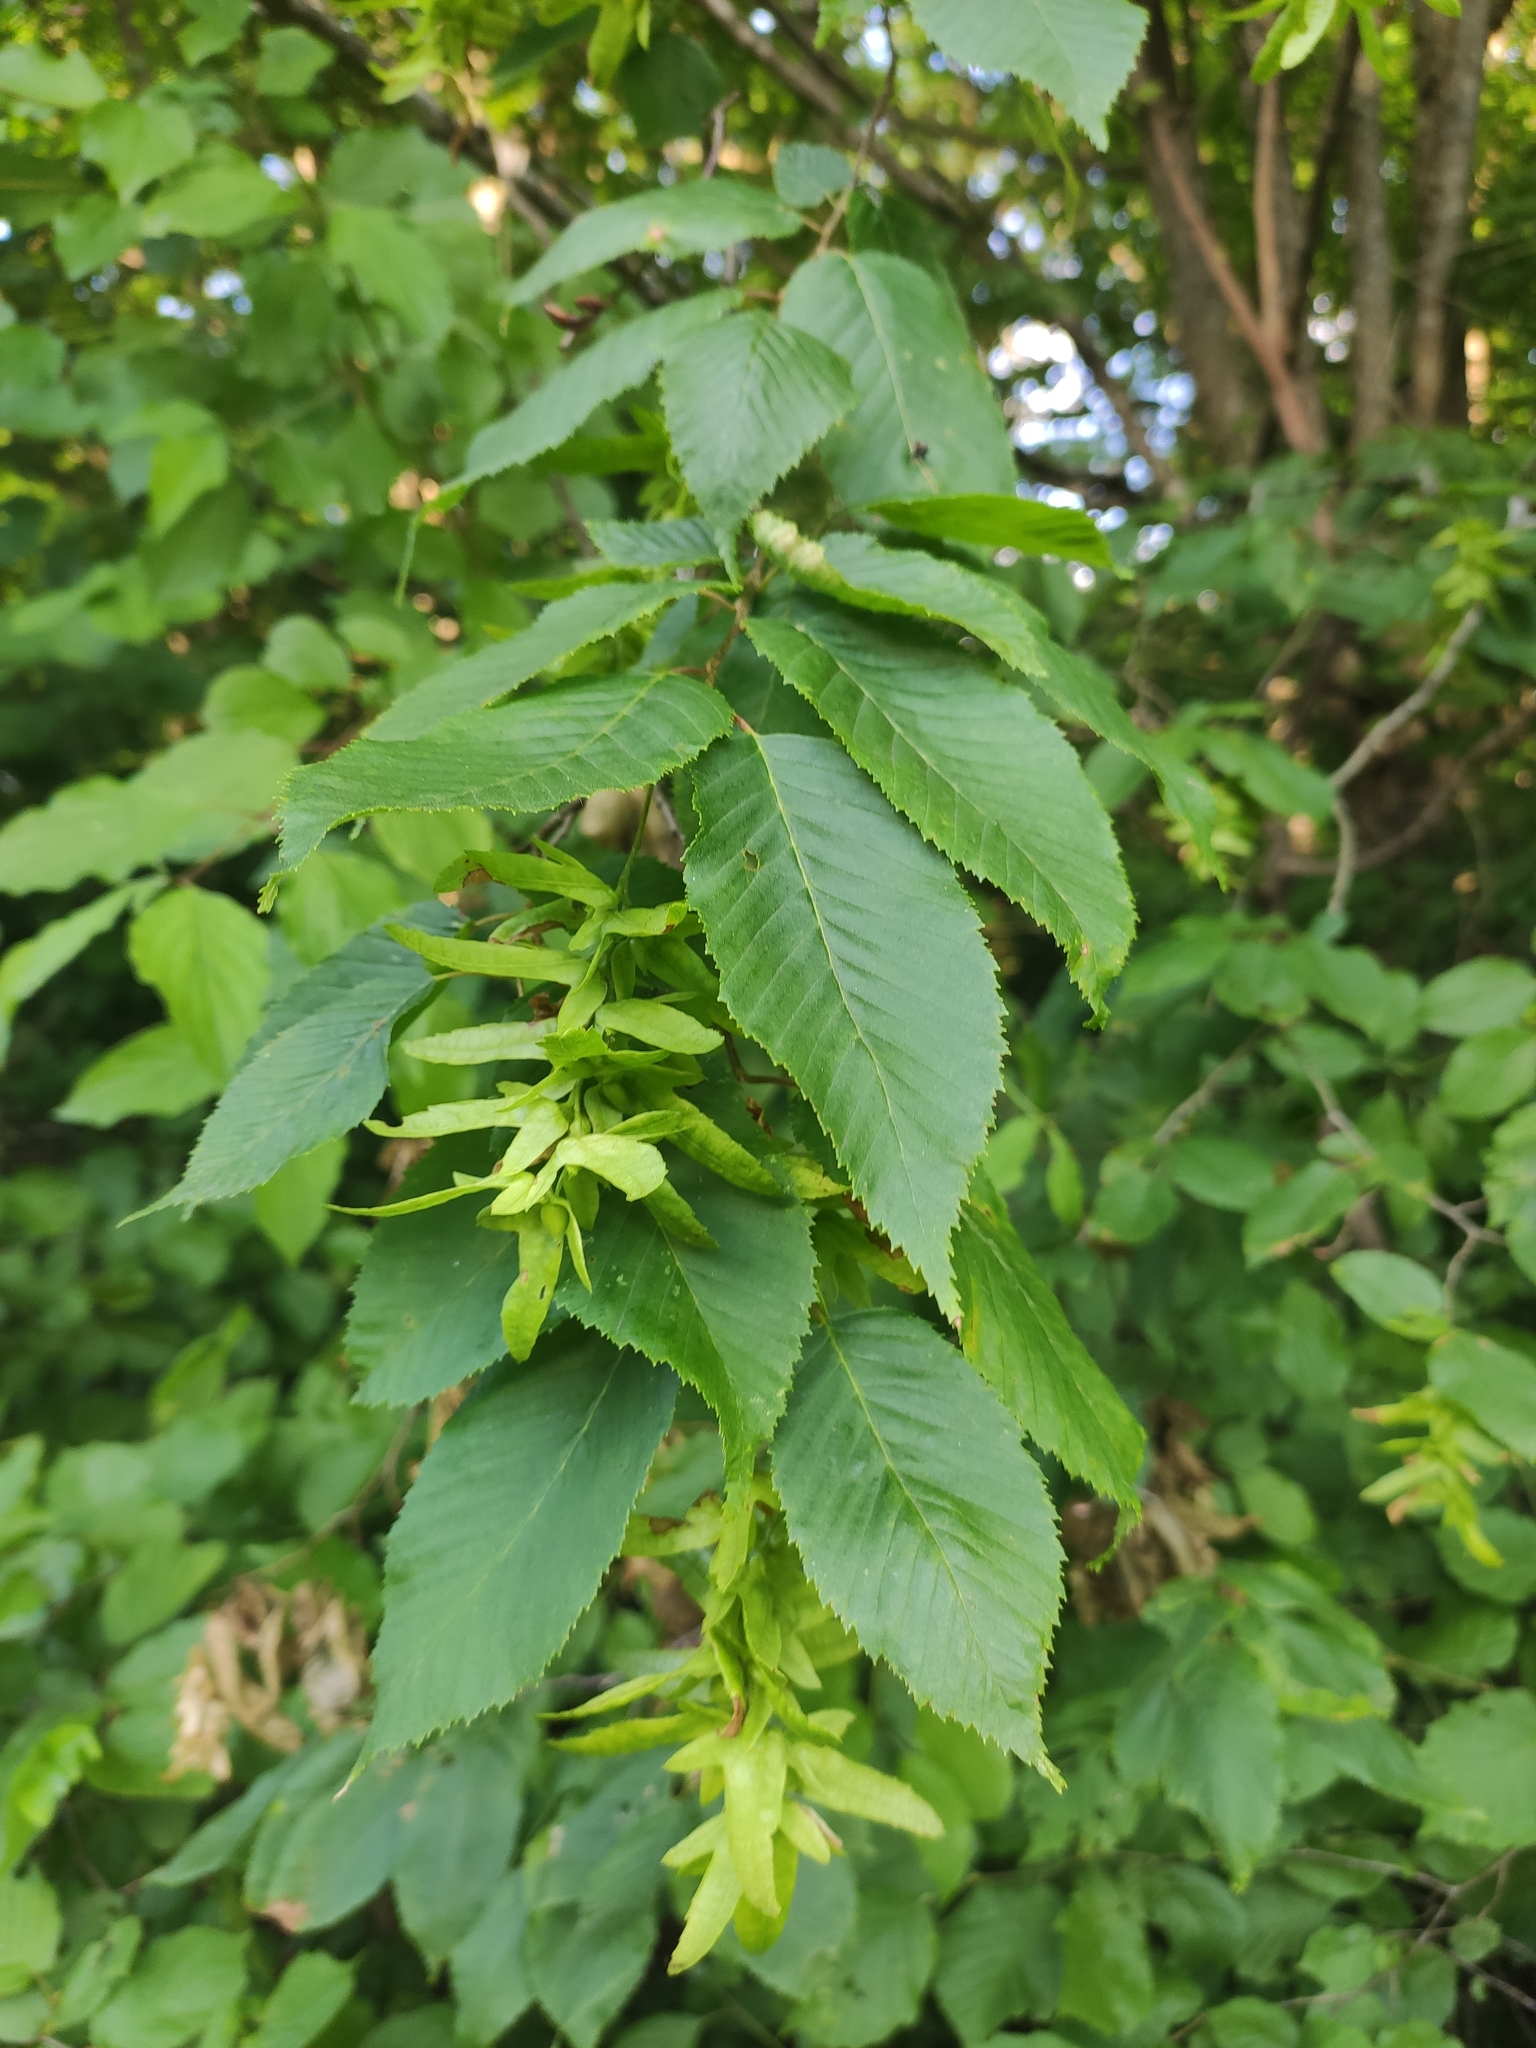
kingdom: Plantae
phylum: Tracheophyta
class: Magnoliopsida
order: Fagales
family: Betulaceae
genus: Carpinus
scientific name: Carpinus betulus
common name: Hornbeam
